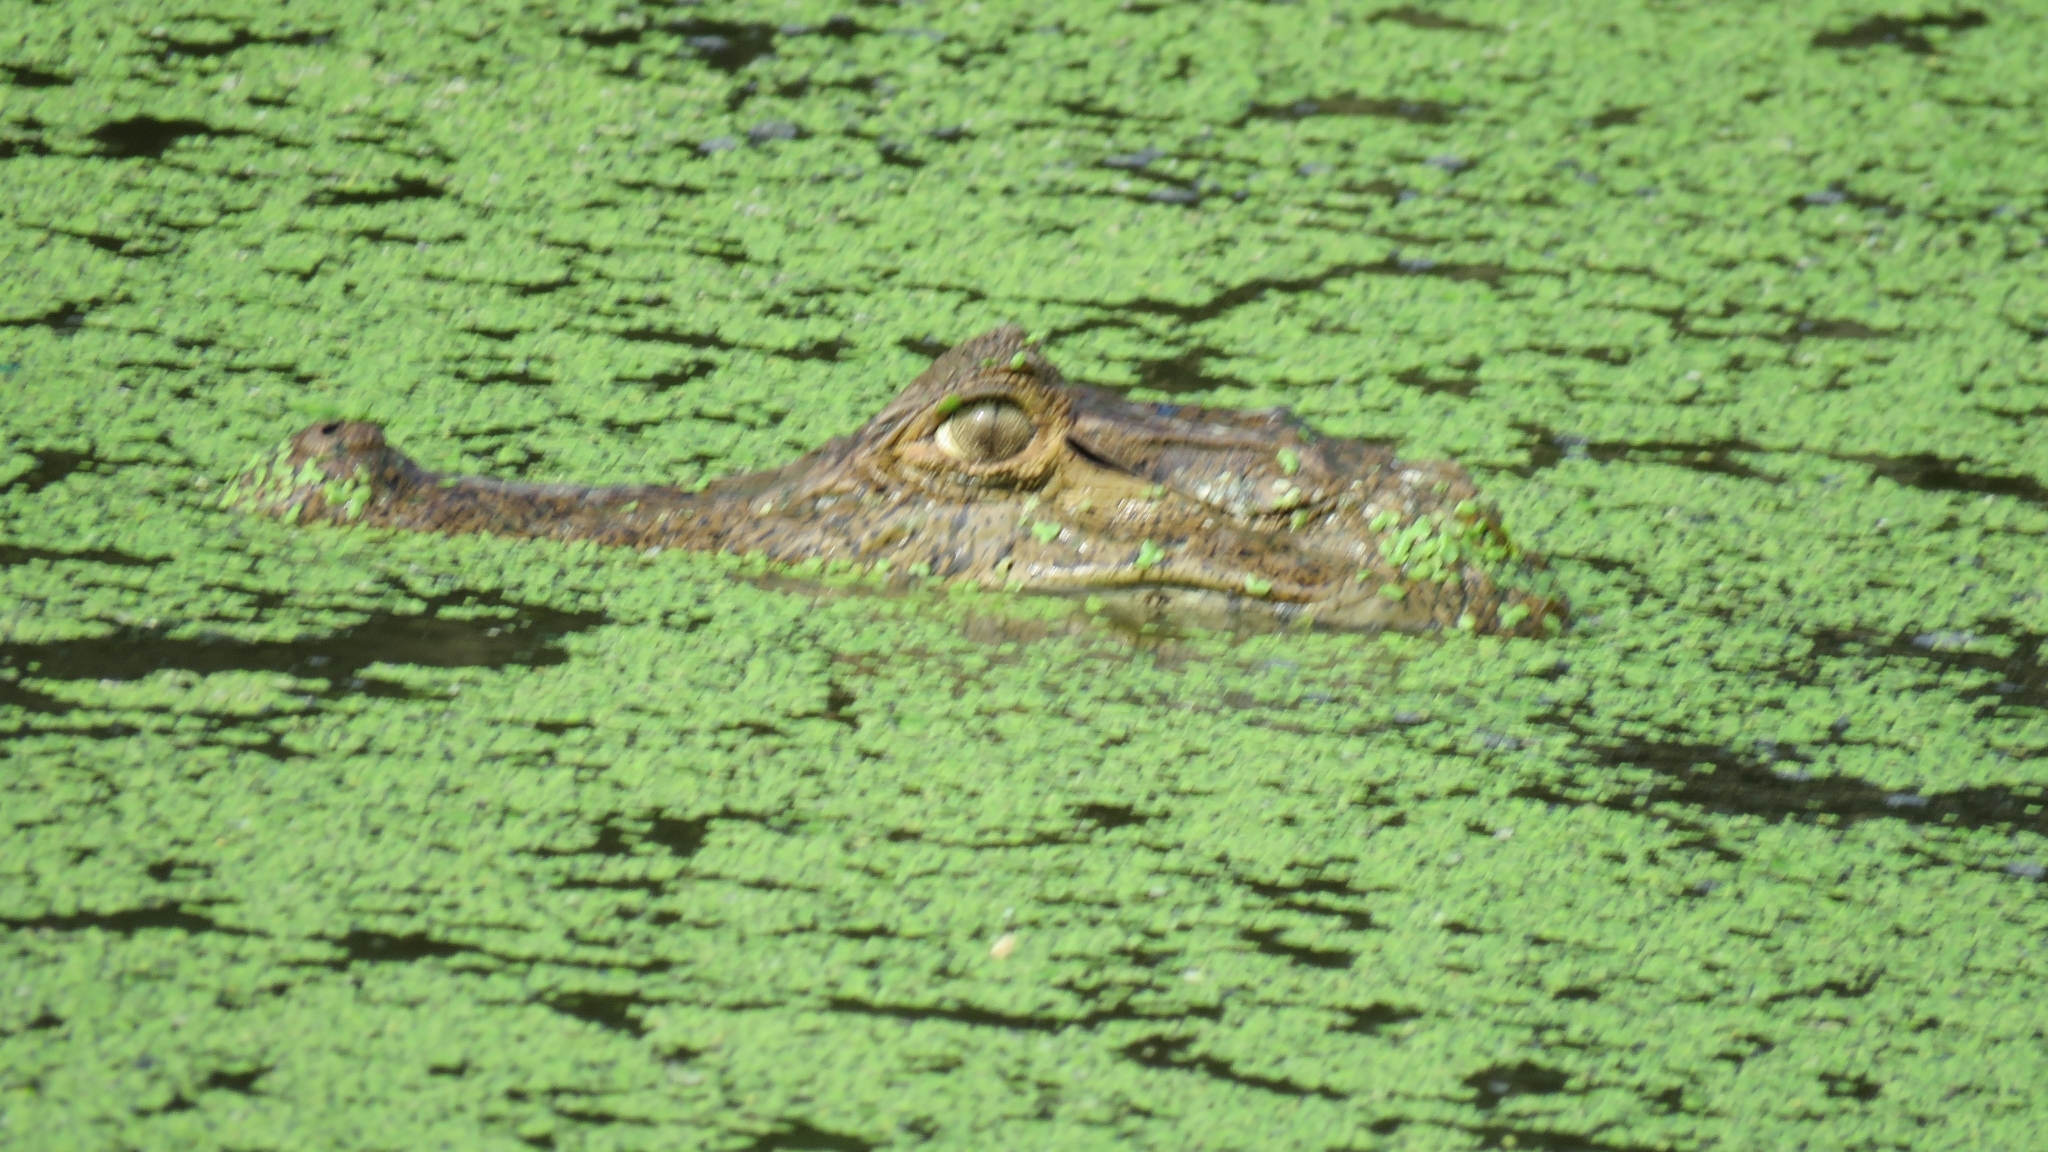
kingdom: Animalia
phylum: Chordata
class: Crocodylia
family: Alligatoridae
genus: Caiman
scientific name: Caiman crocodilus
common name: Common caiman
